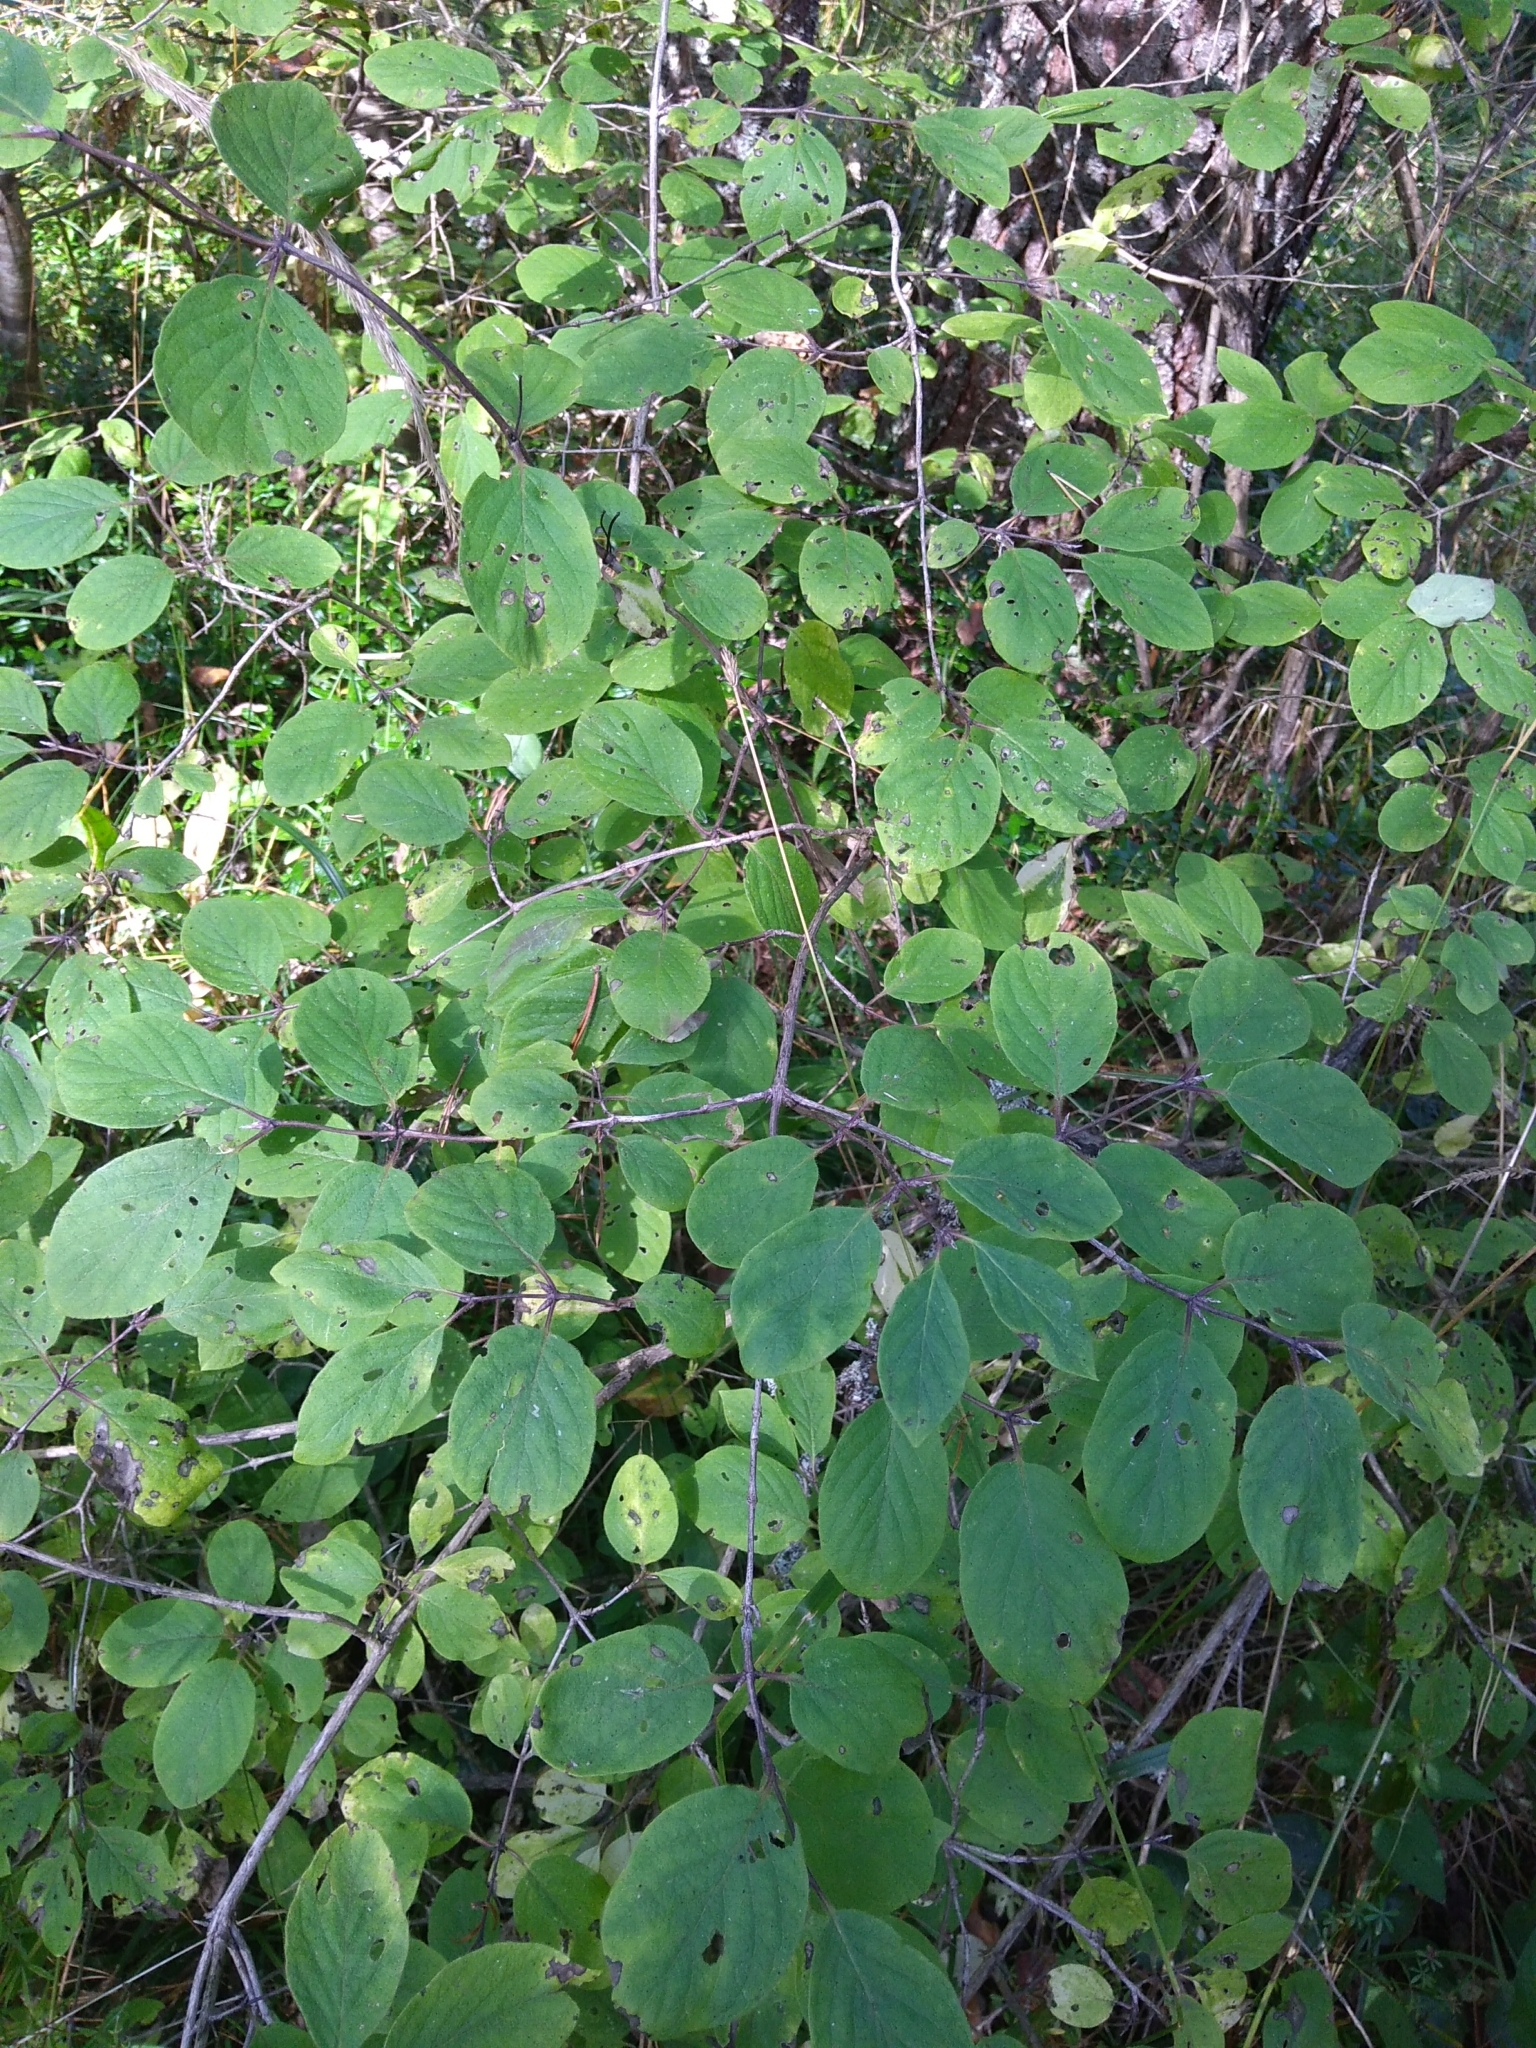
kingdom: Plantae
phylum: Tracheophyta
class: Magnoliopsida
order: Dipsacales
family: Caprifoliaceae
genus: Lonicera
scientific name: Lonicera xylosteum
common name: Fly honeysuckle
